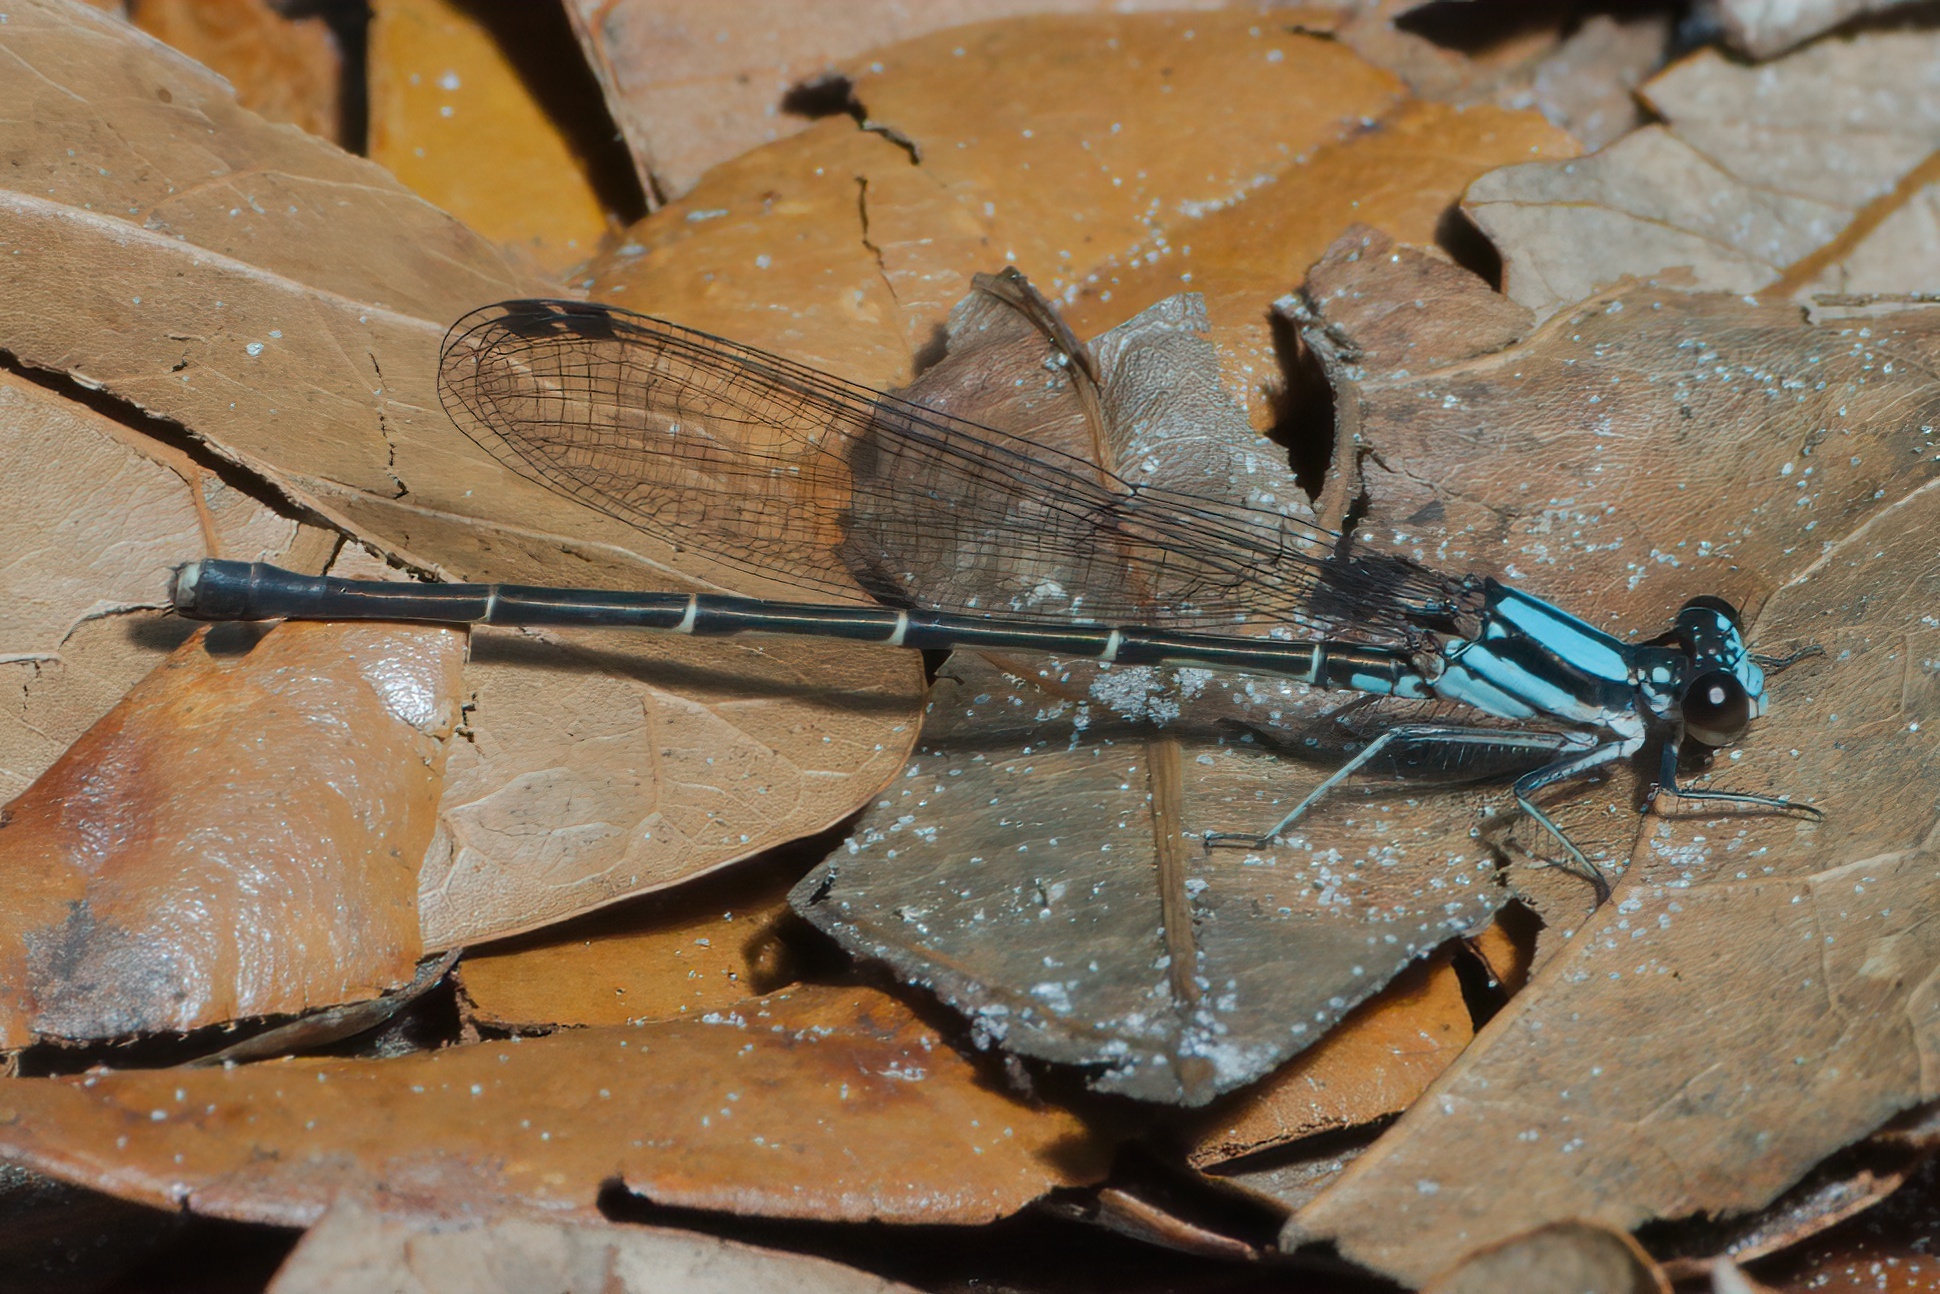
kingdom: Animalia
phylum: Arthropoda
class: Insecta
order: Odonata
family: Coenagrionidae
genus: Argia
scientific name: Argia tibialis
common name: Blue-tipped dancer
